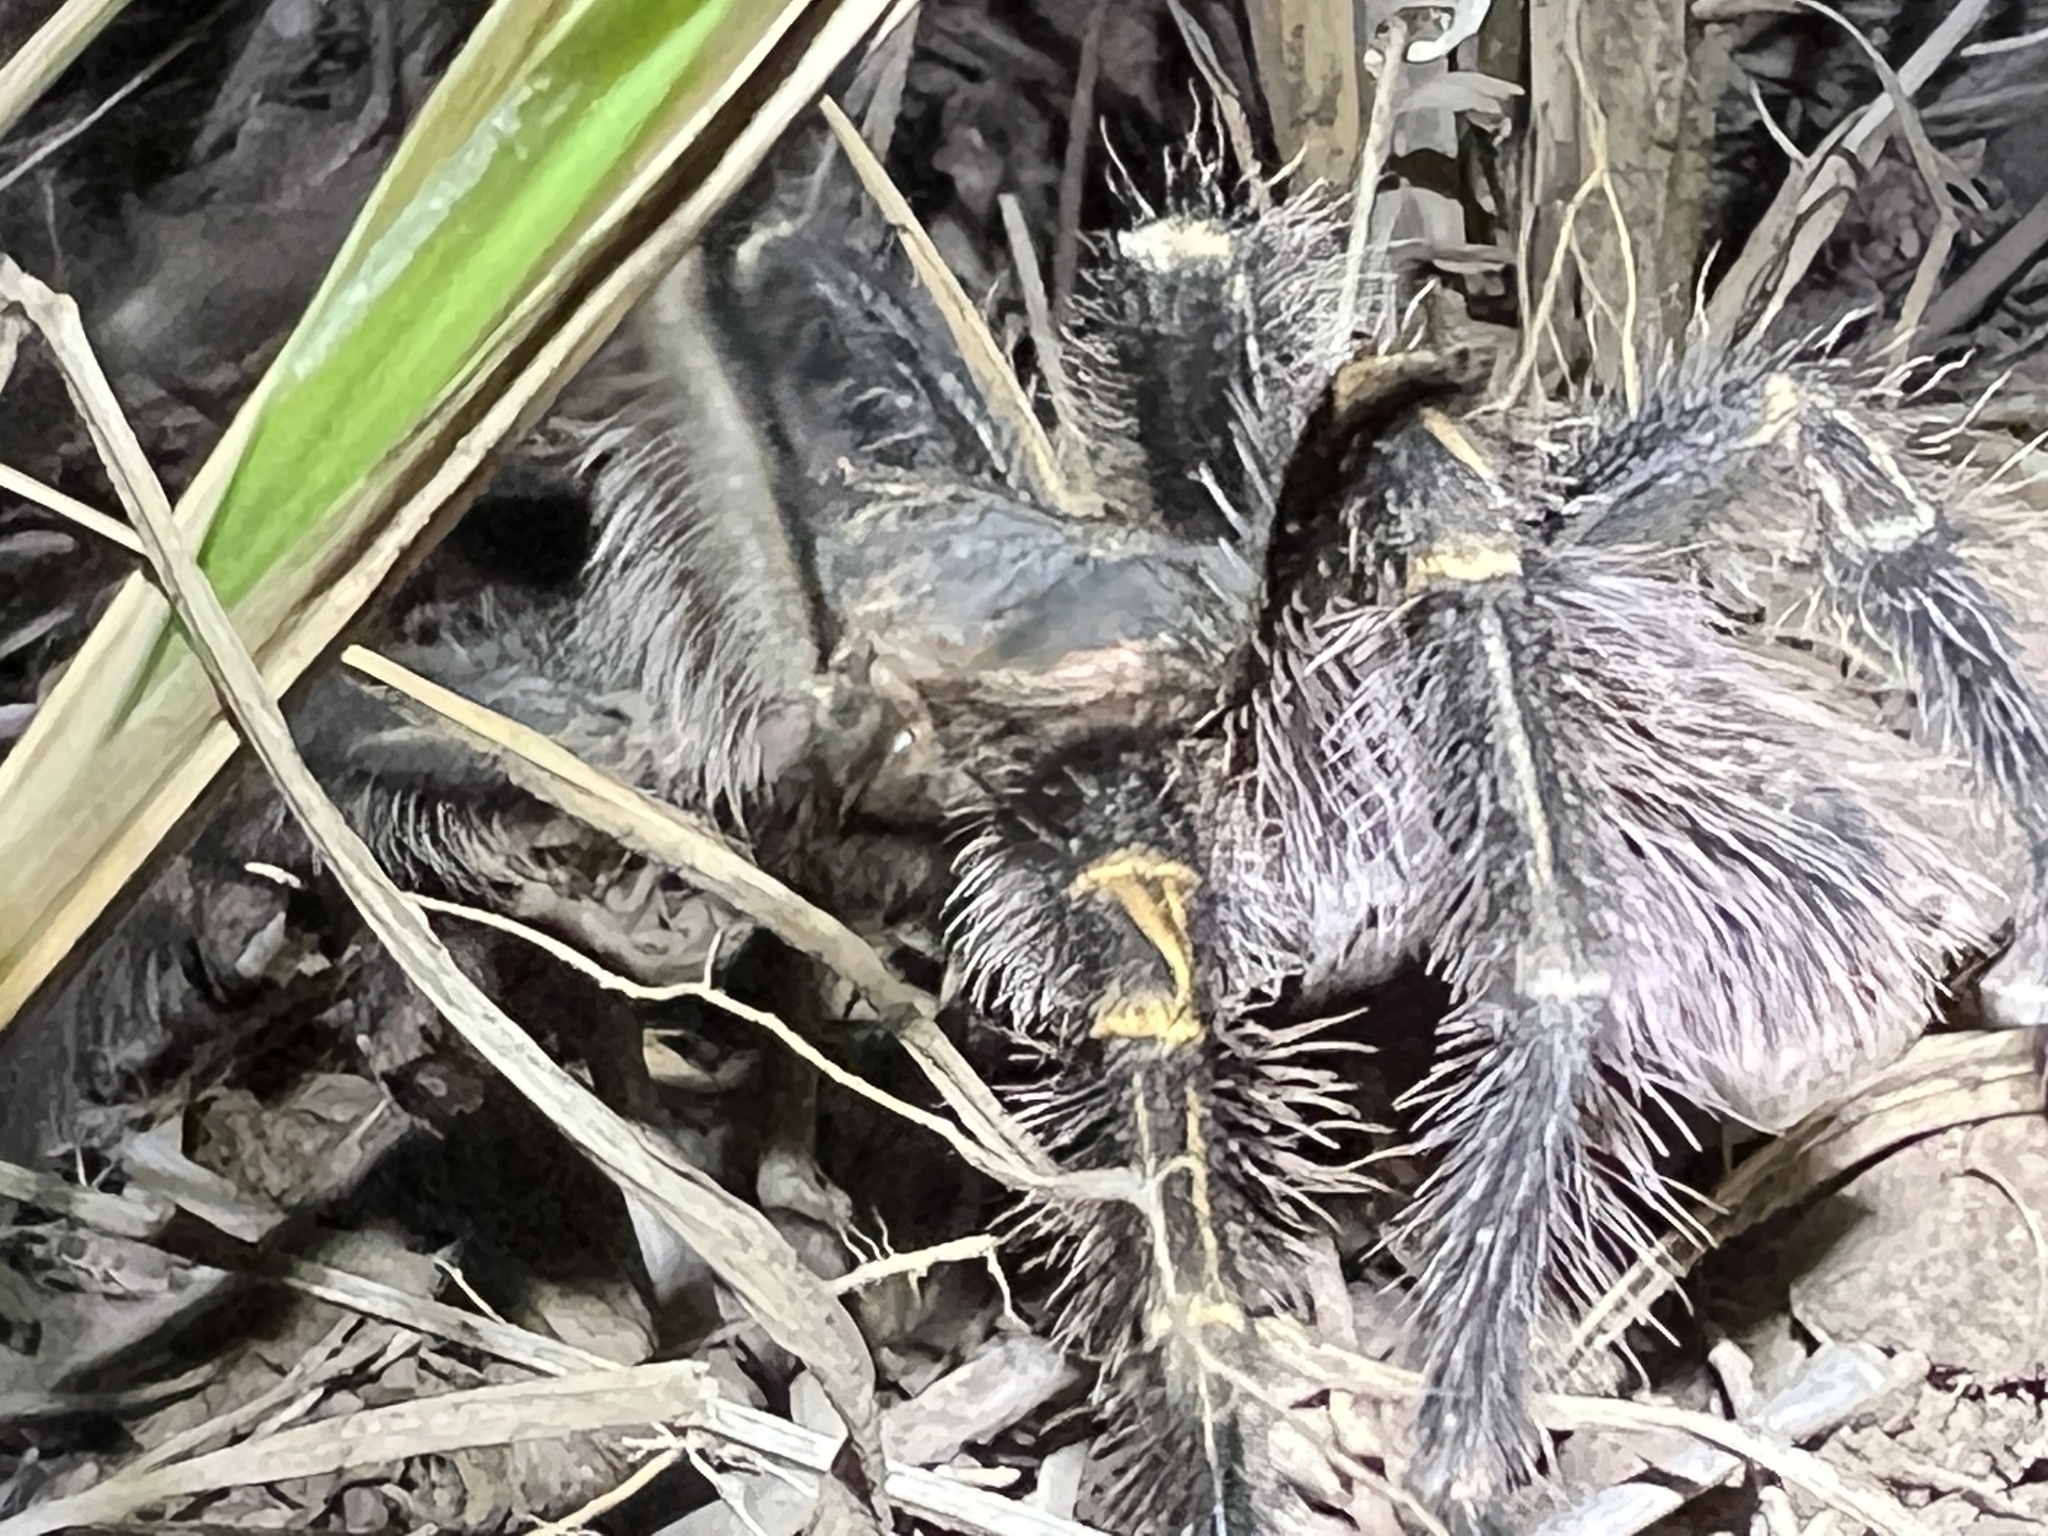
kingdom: Animalia
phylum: Arthropoda
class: Arachnida
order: Araneae
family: Theraphosidae
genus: Grammostola
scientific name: Grammostola pulchripes
